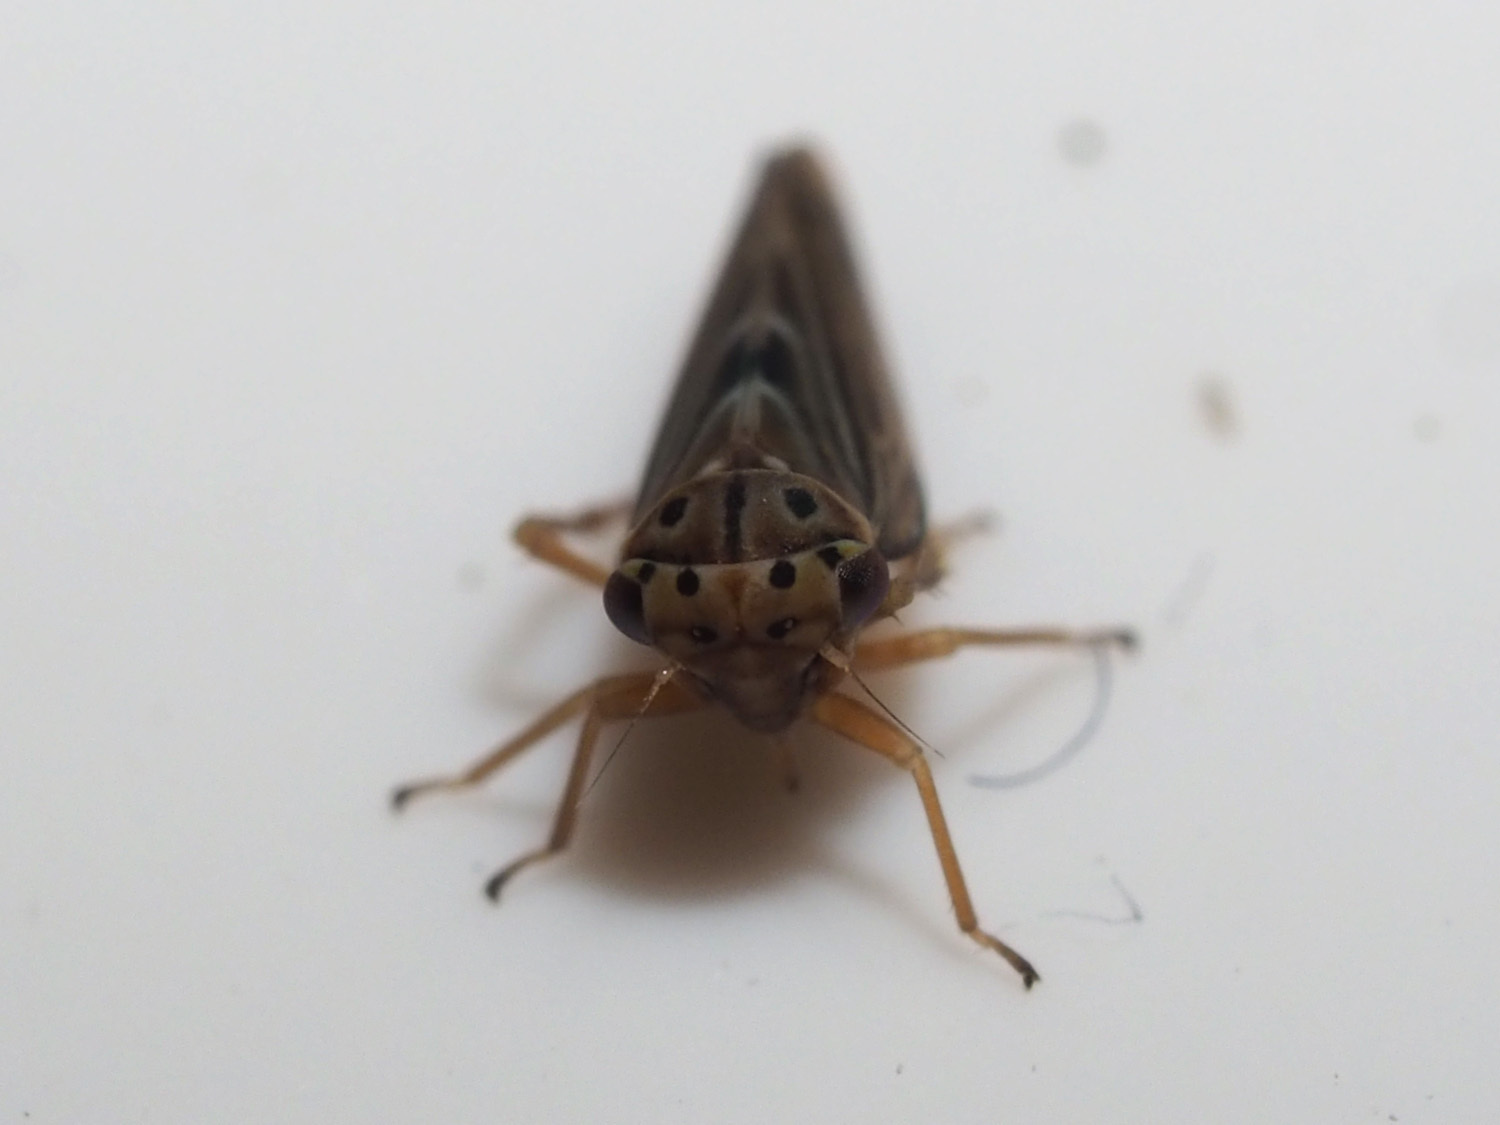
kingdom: Animalia
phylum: Arthropoda
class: Insecta
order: Hemiptera
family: Cicadellidae
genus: Agalliopsis
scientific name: Agalliopsis novella
